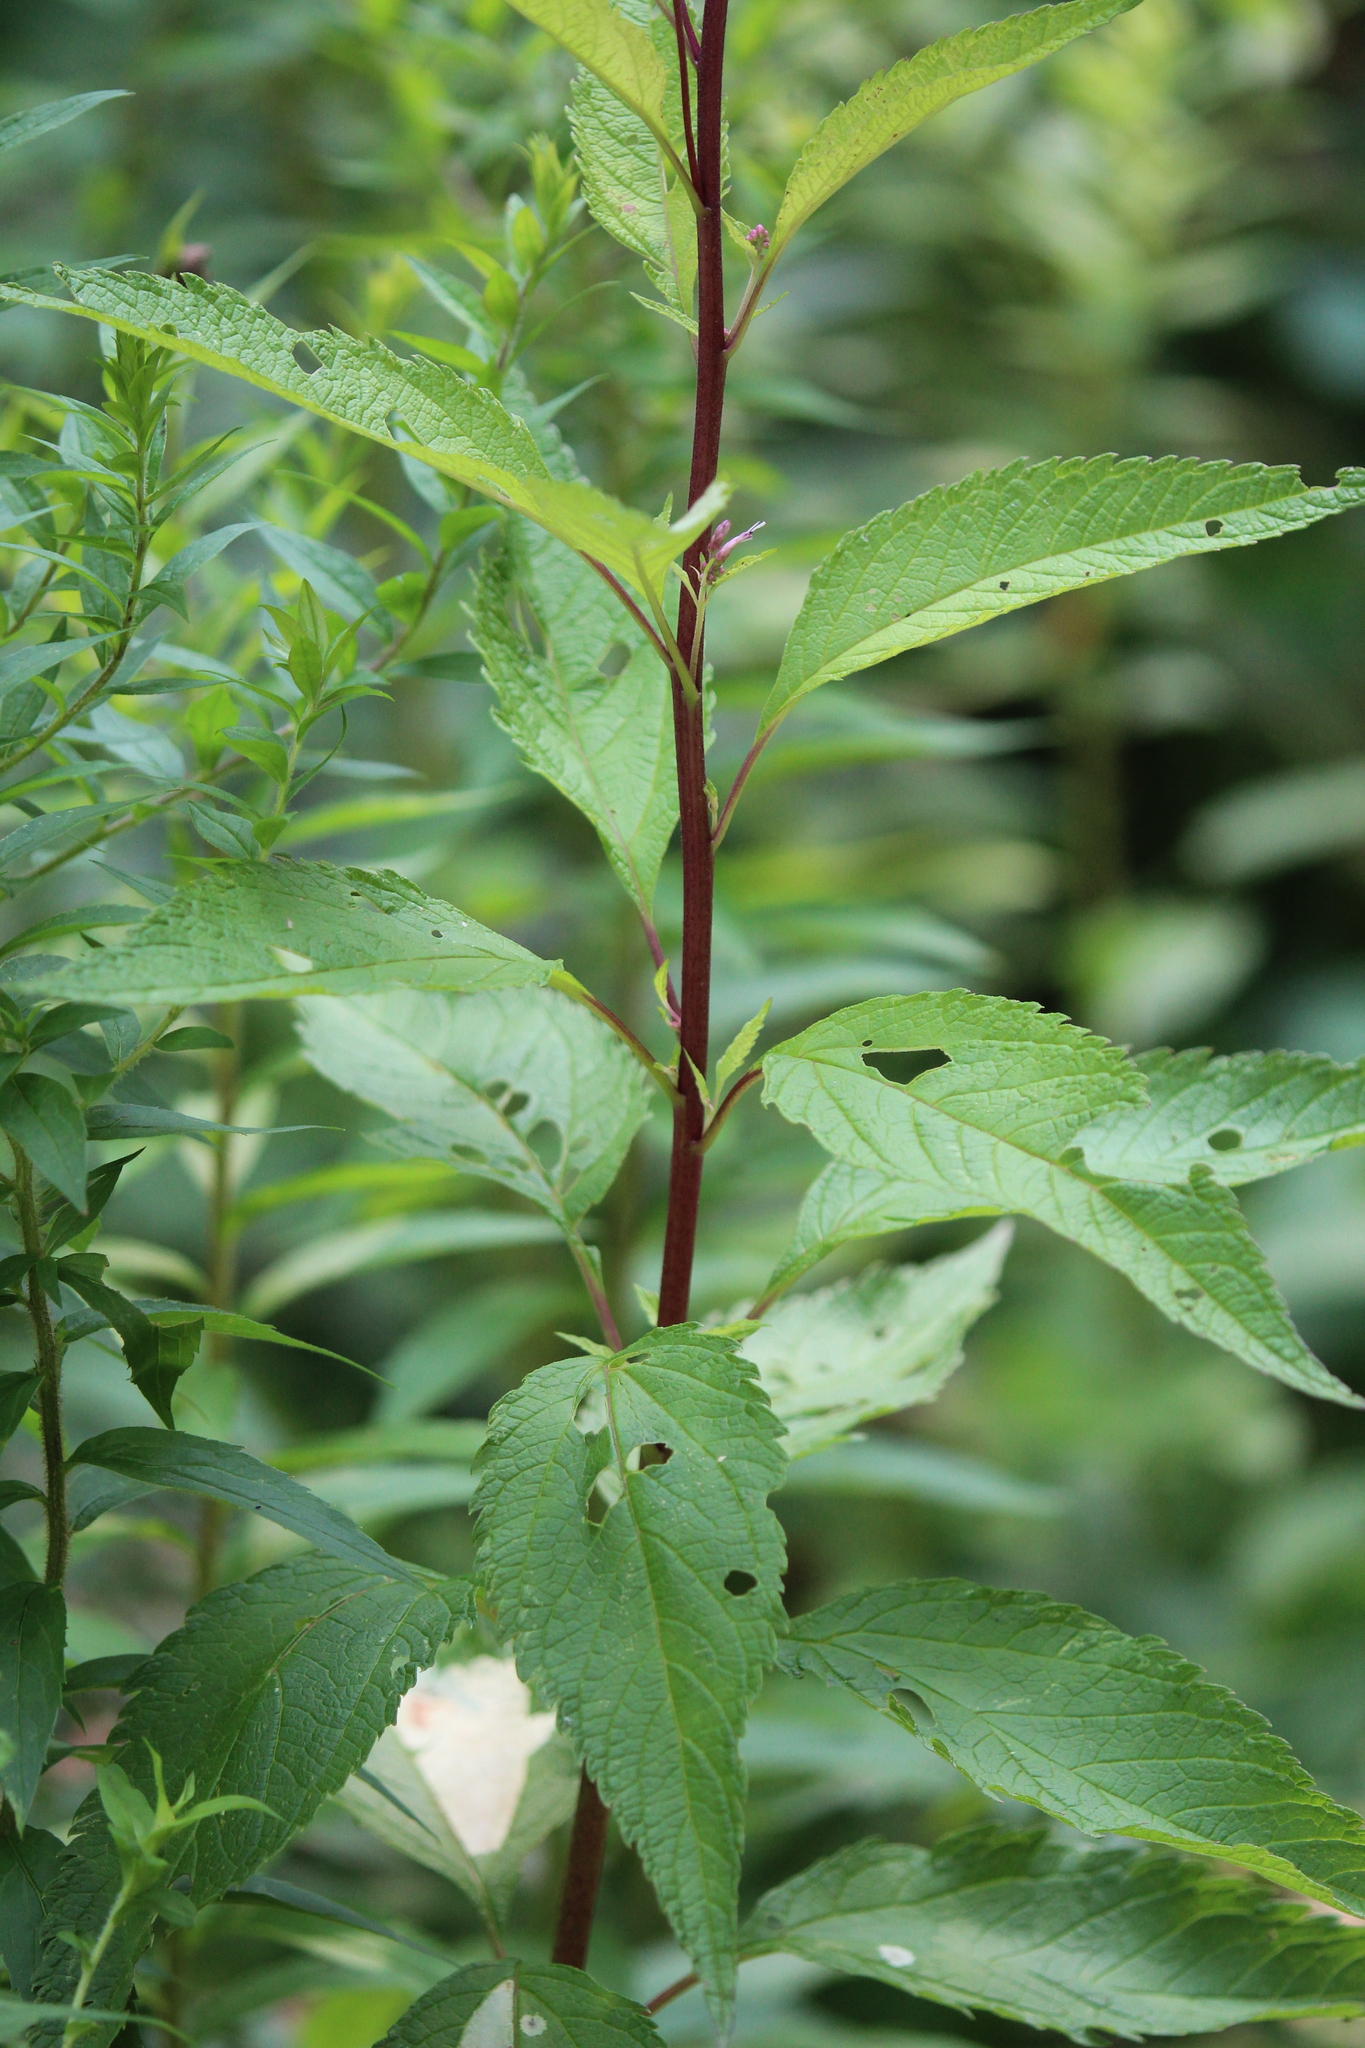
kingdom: Plantae
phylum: Tracheophyta
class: Magnoliopsida
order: Asterales
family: Asteraceae
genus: Eutrochium
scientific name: Eutrochium maculatum
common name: Spotted joe pye weed
